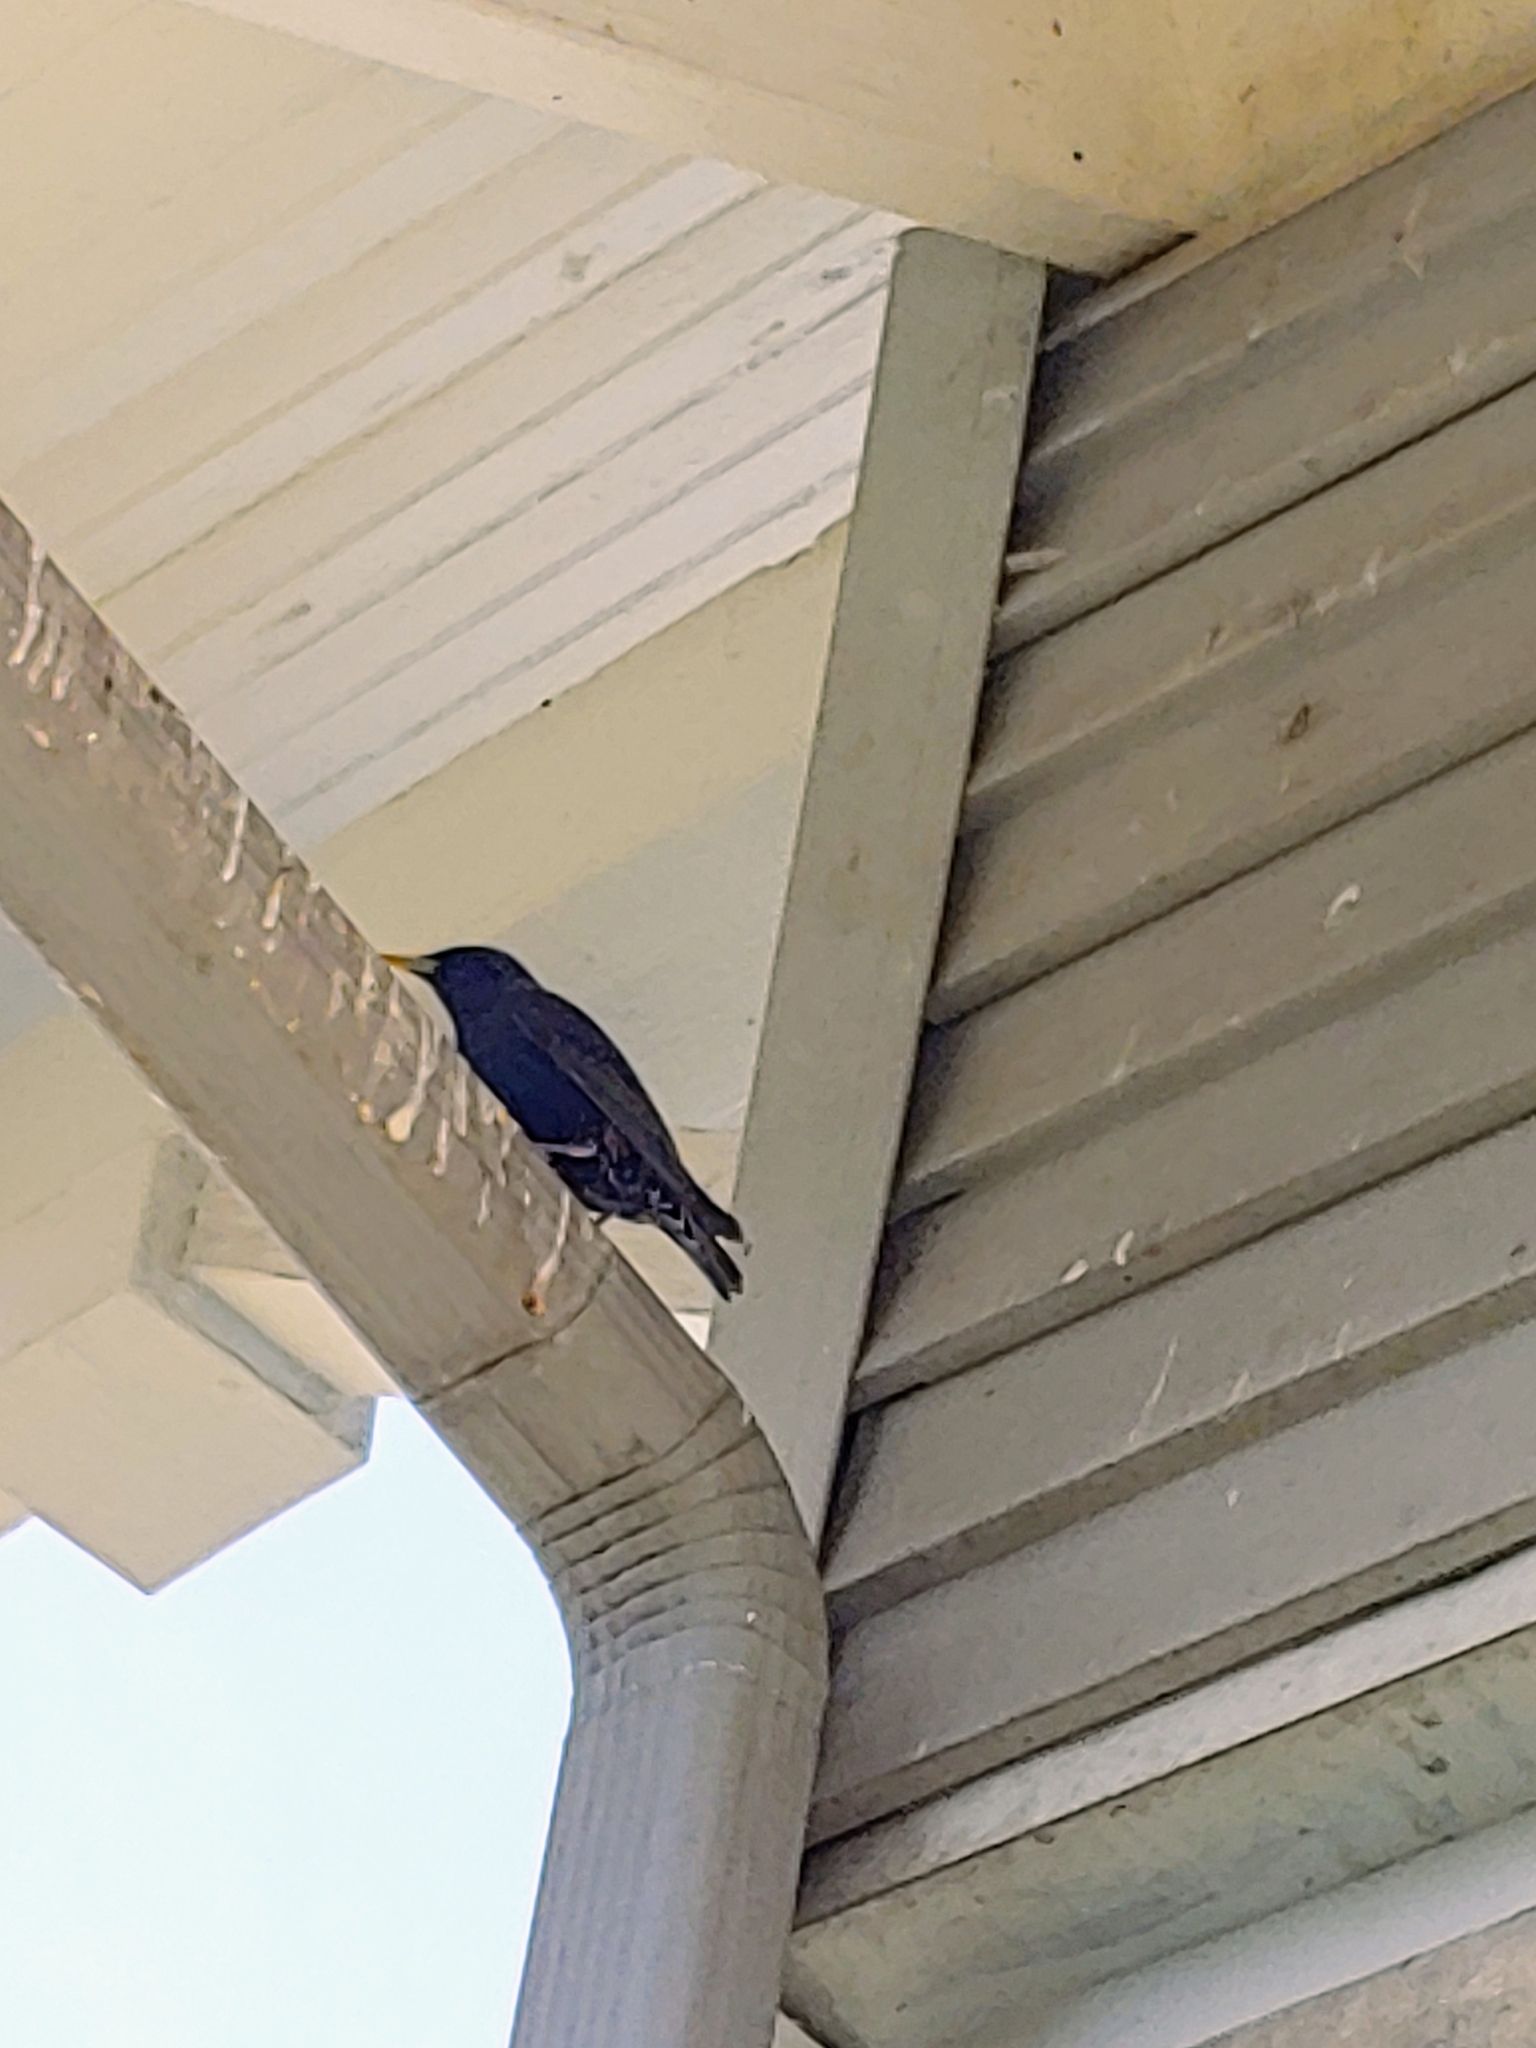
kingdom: Animalia
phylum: Chordata
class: Aves
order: Passeriformes
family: Sturnidae
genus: Sturnus
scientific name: Sturnus vulgaris
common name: Common starling
